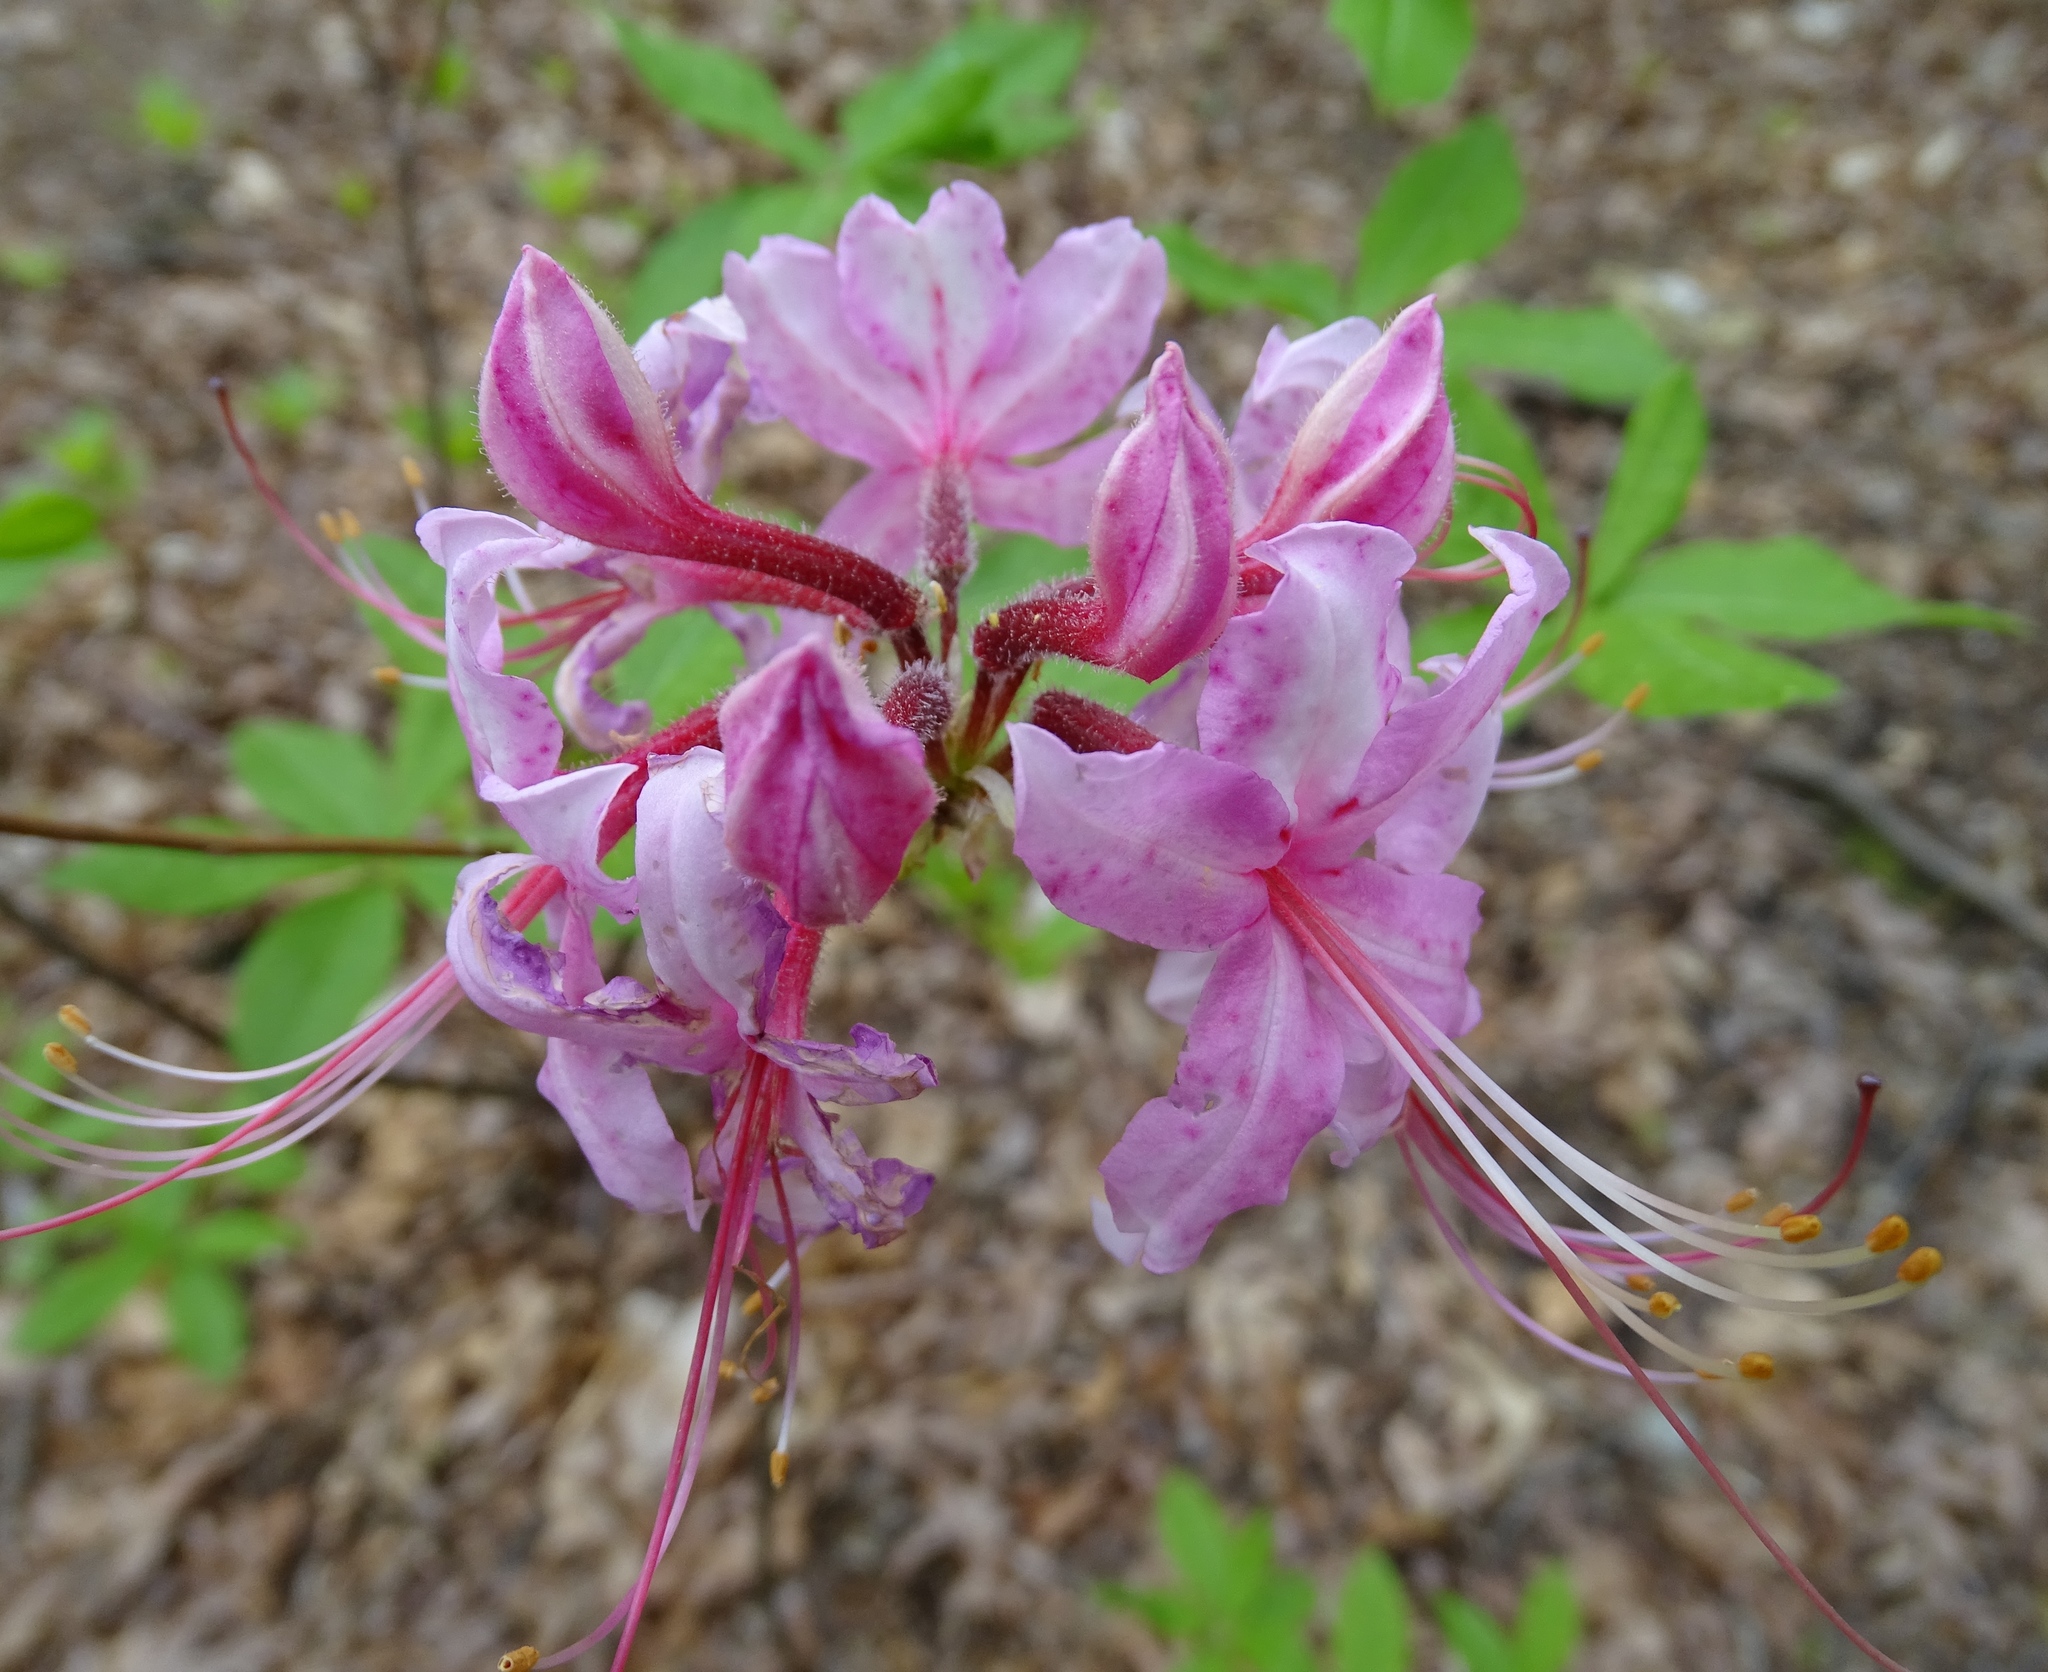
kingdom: Plantae
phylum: Tracheophyta
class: Magnoliopsida
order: Ericales
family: Ericaceae
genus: Rhododendron
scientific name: Rhododendron periclymenoides
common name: Election-pink
